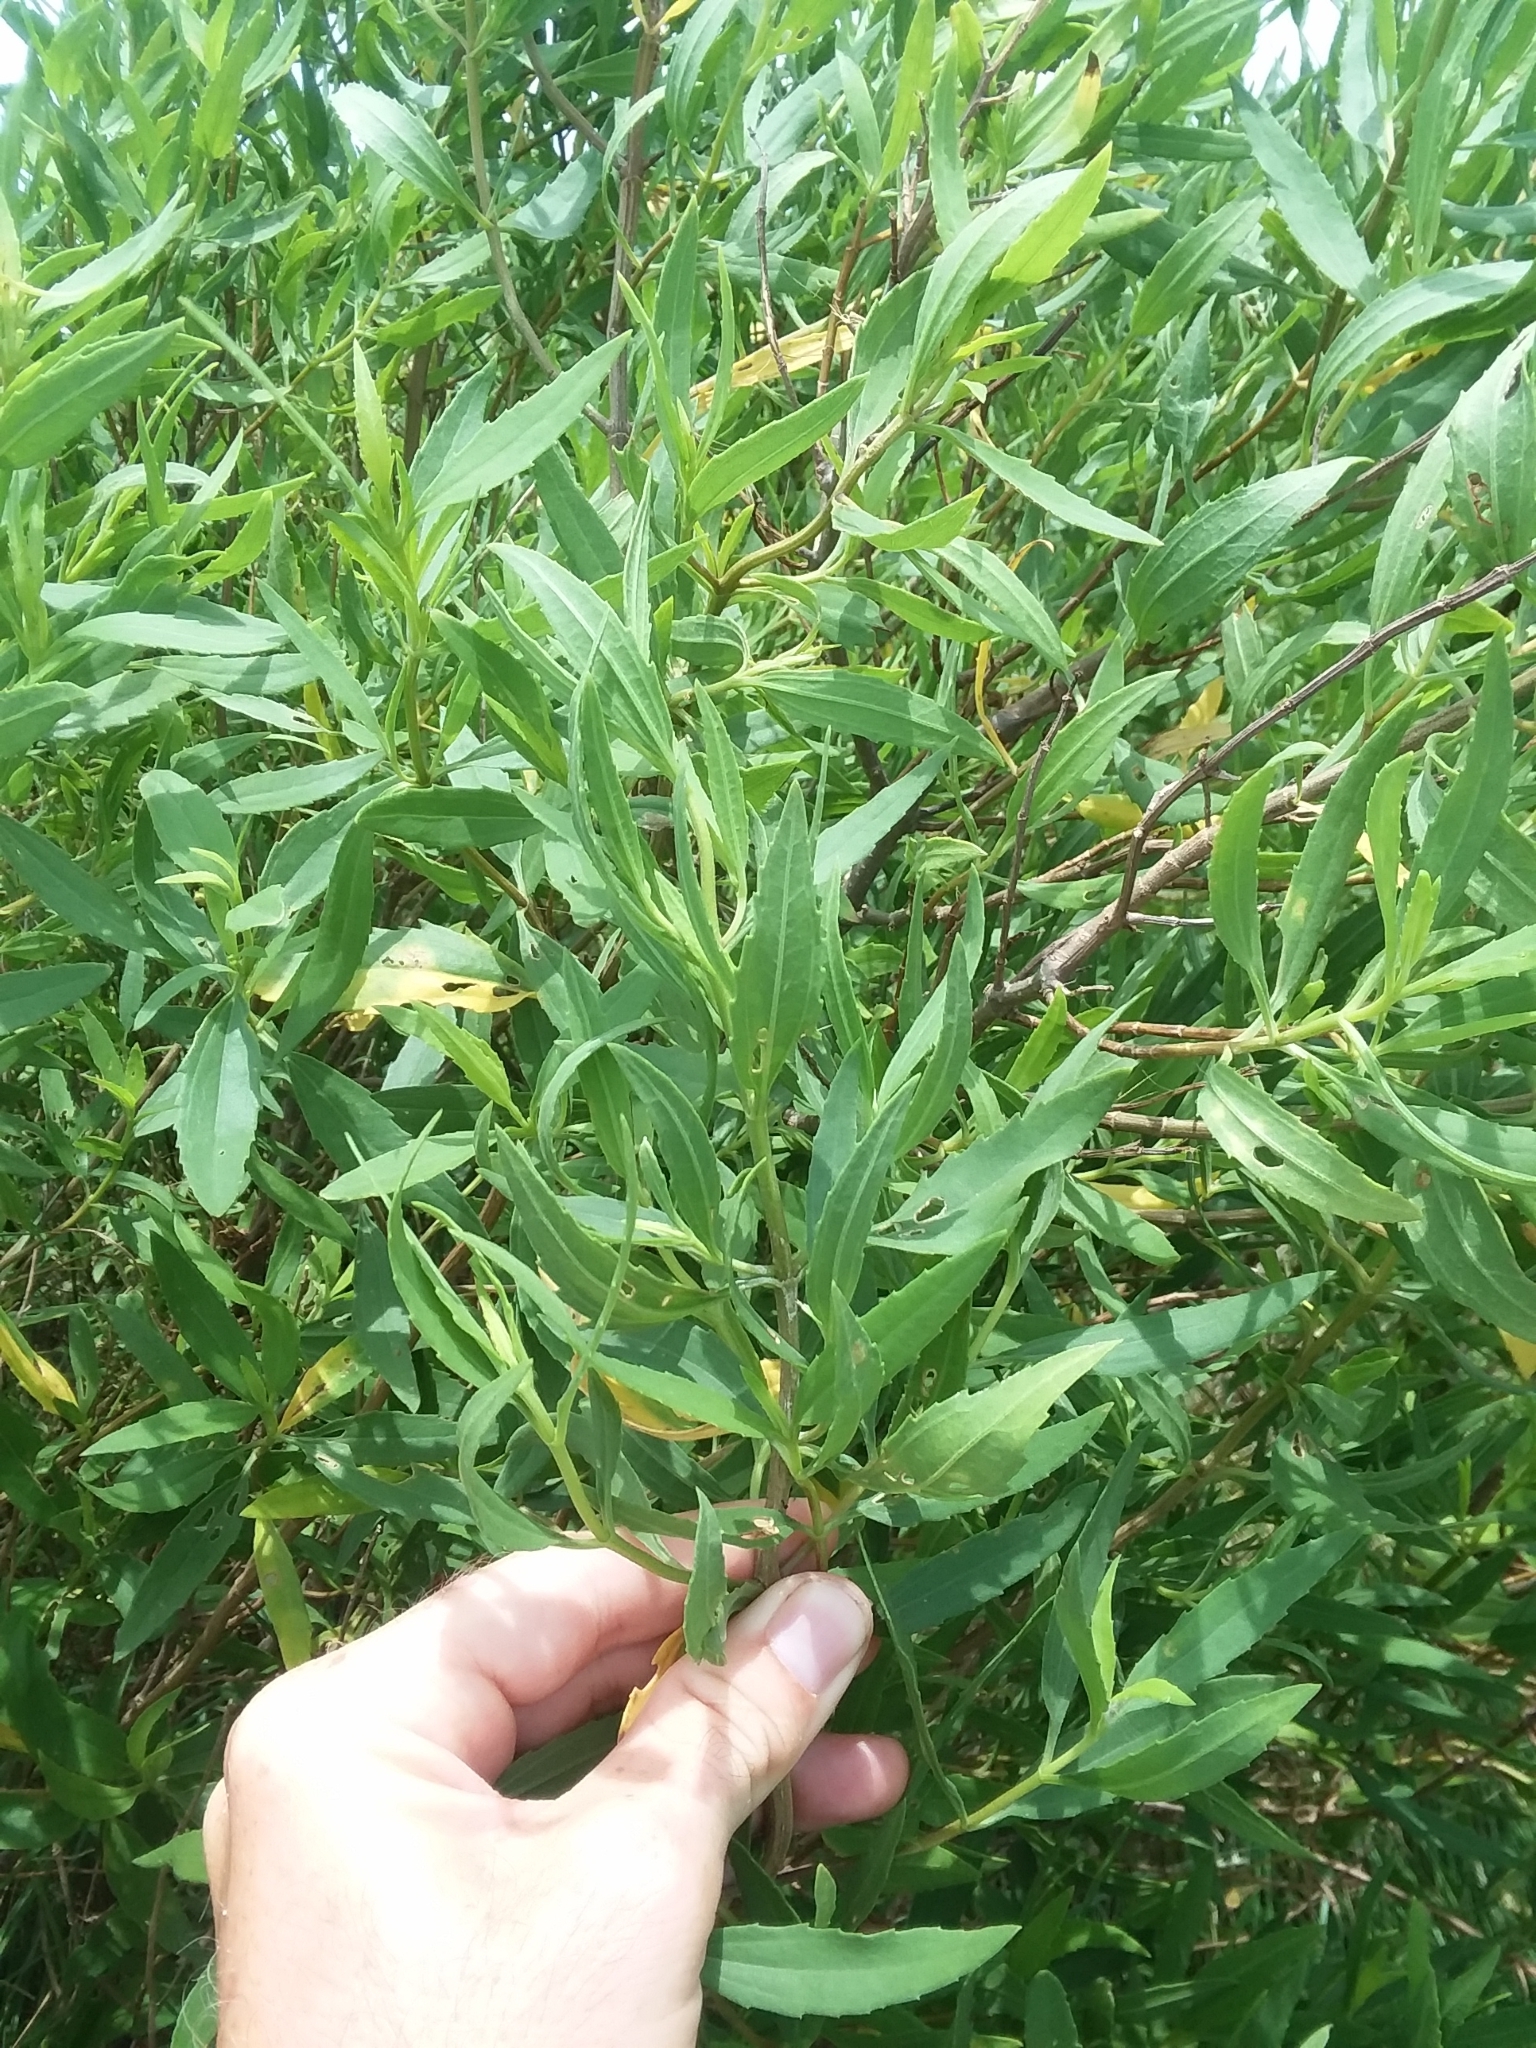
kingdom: Plantae
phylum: Tracheophyta
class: Magnoliopsida
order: Asterales
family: Asteraceae
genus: Iva
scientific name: Iva frutescens
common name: Big-leaved marsh-elder
